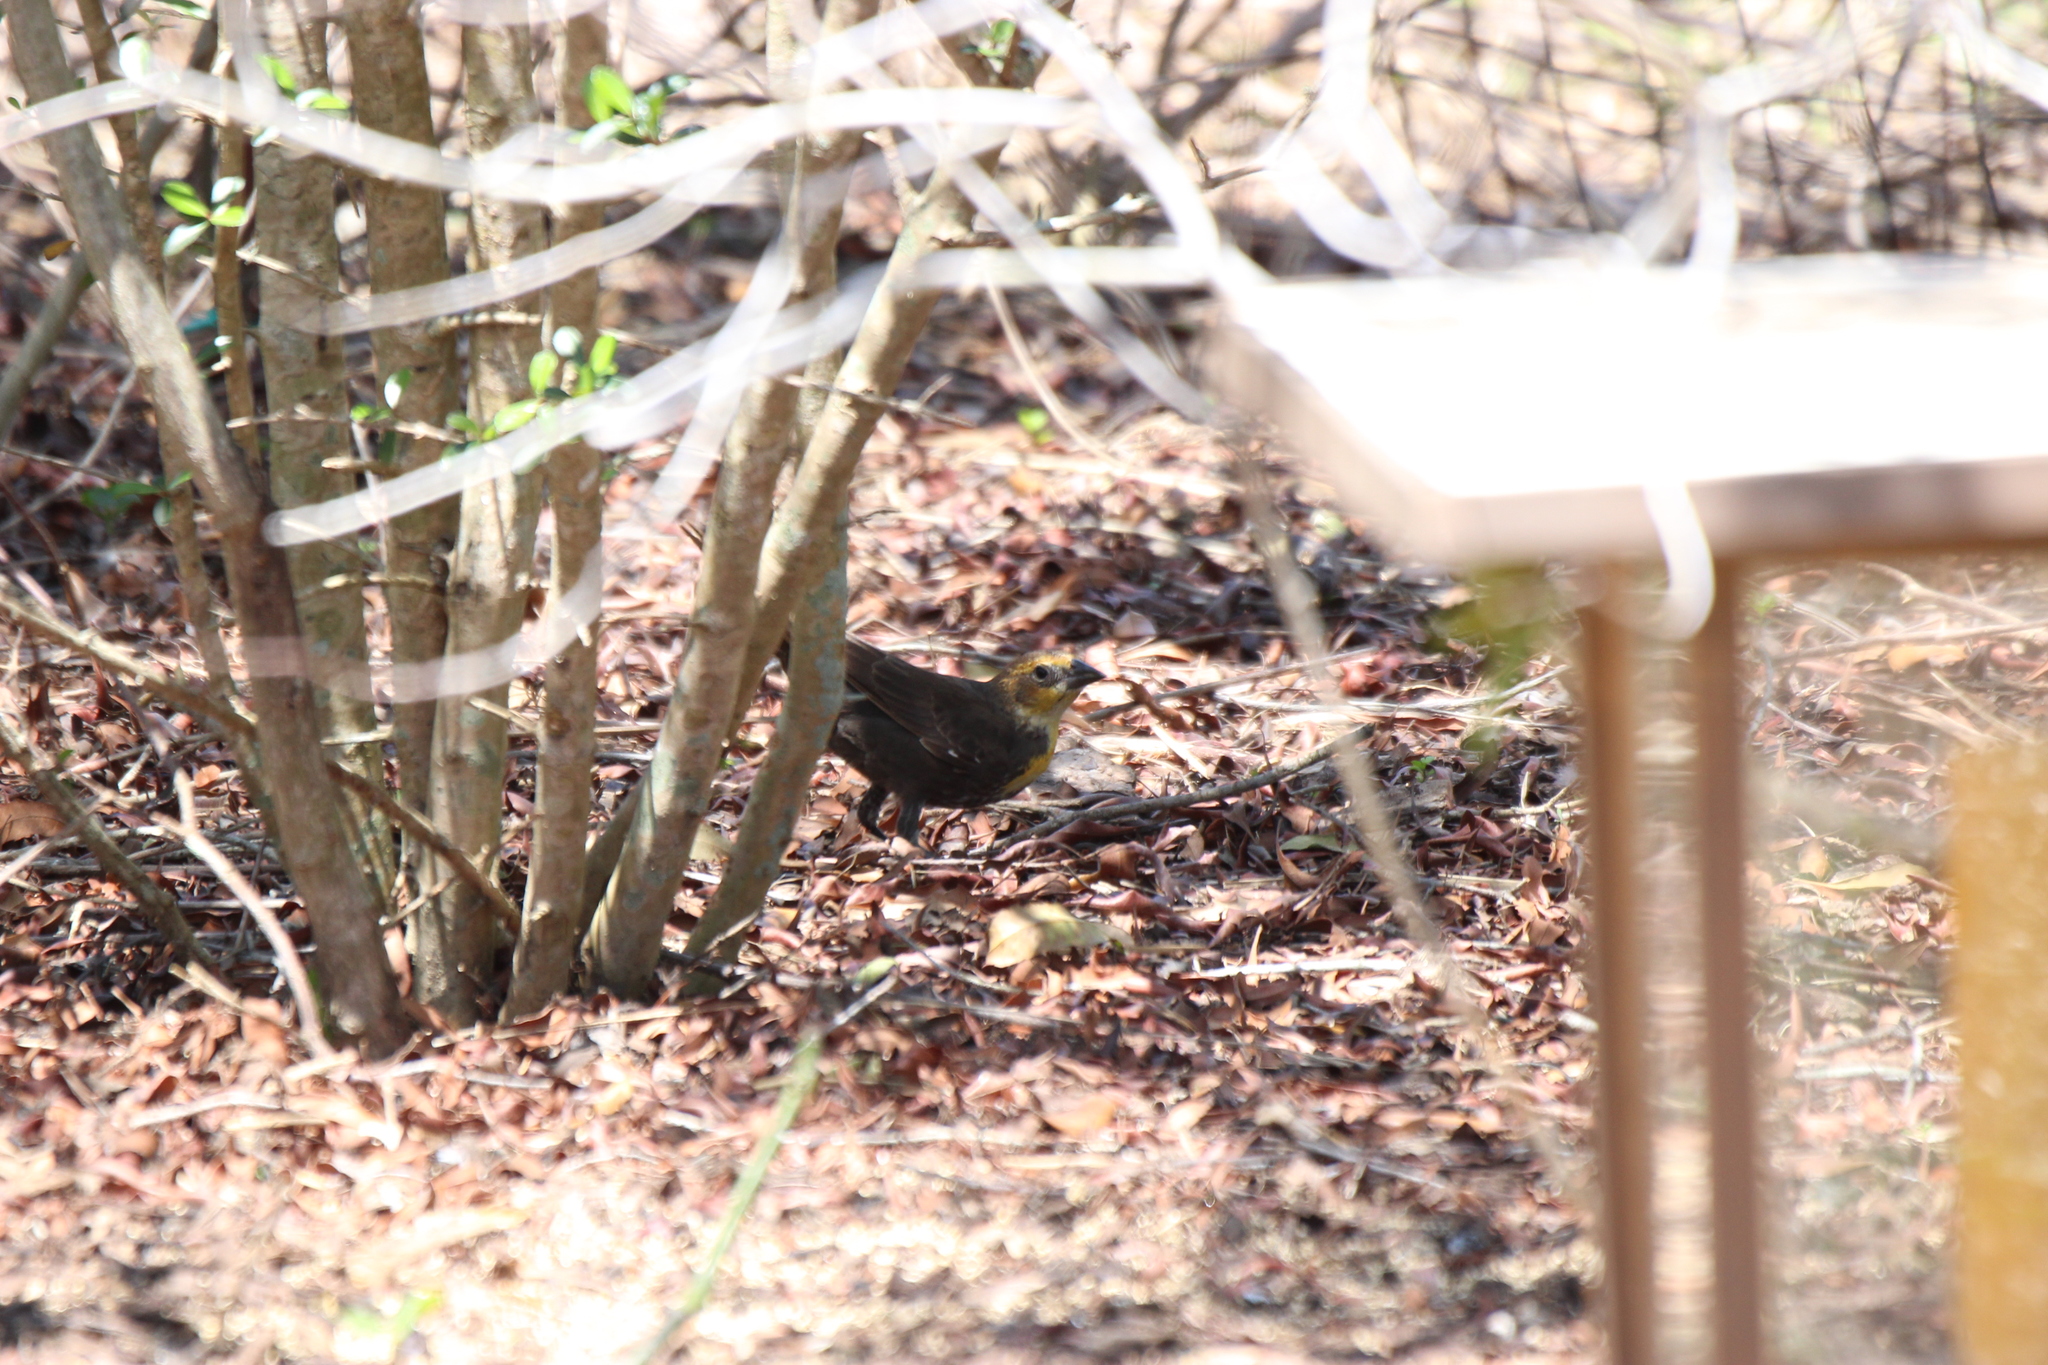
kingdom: Animalia
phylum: Chordata
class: Aves
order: Passeriformes
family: Icteridae
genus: Xanthocephalus
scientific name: Xanthocephalus xanthocephalus
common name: Yellow-headed blackbird
